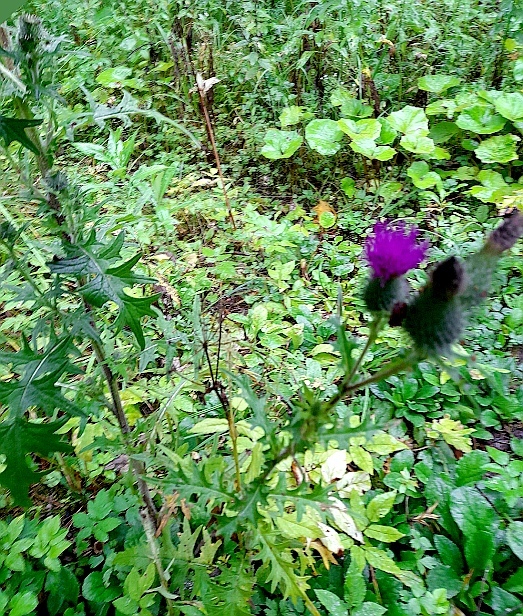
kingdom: Plantae
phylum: Tracheophyta
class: Magnoliopsida
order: Asterales
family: Asteraceae
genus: Cirsium
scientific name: Cirsium vulgare
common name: Bull thistle
